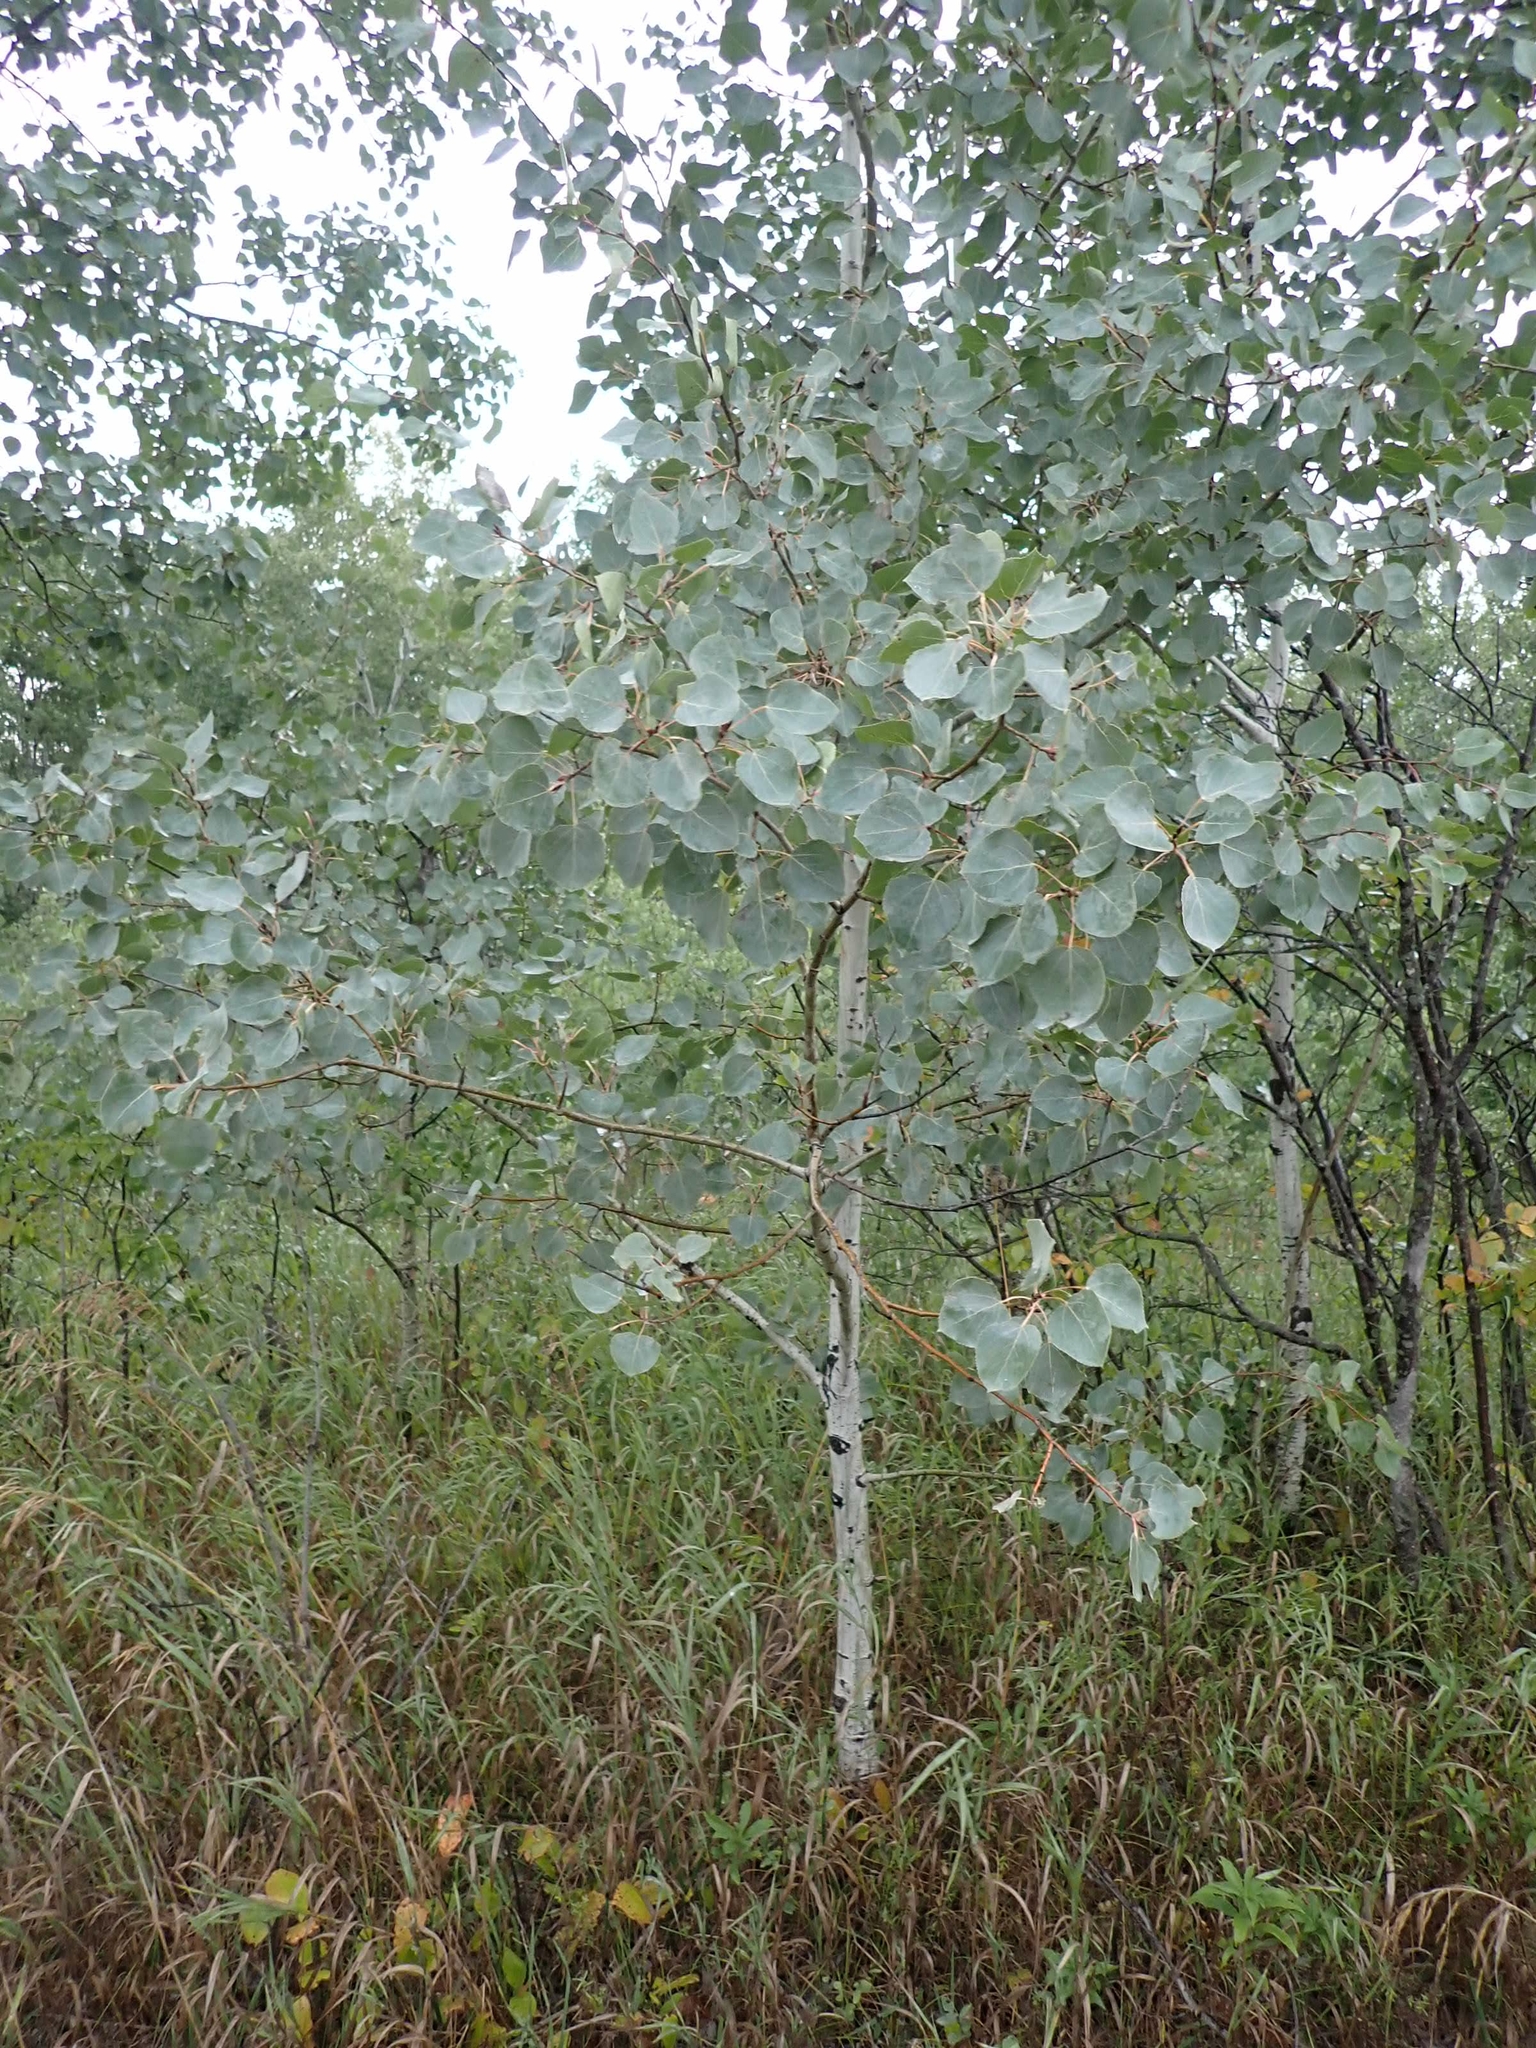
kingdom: Plantae
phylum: Tracheophyta
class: Magnoliopsida
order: Malpighiales
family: Salicaceae
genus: Populus
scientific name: Populus tremuloides
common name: Quaking aspen
